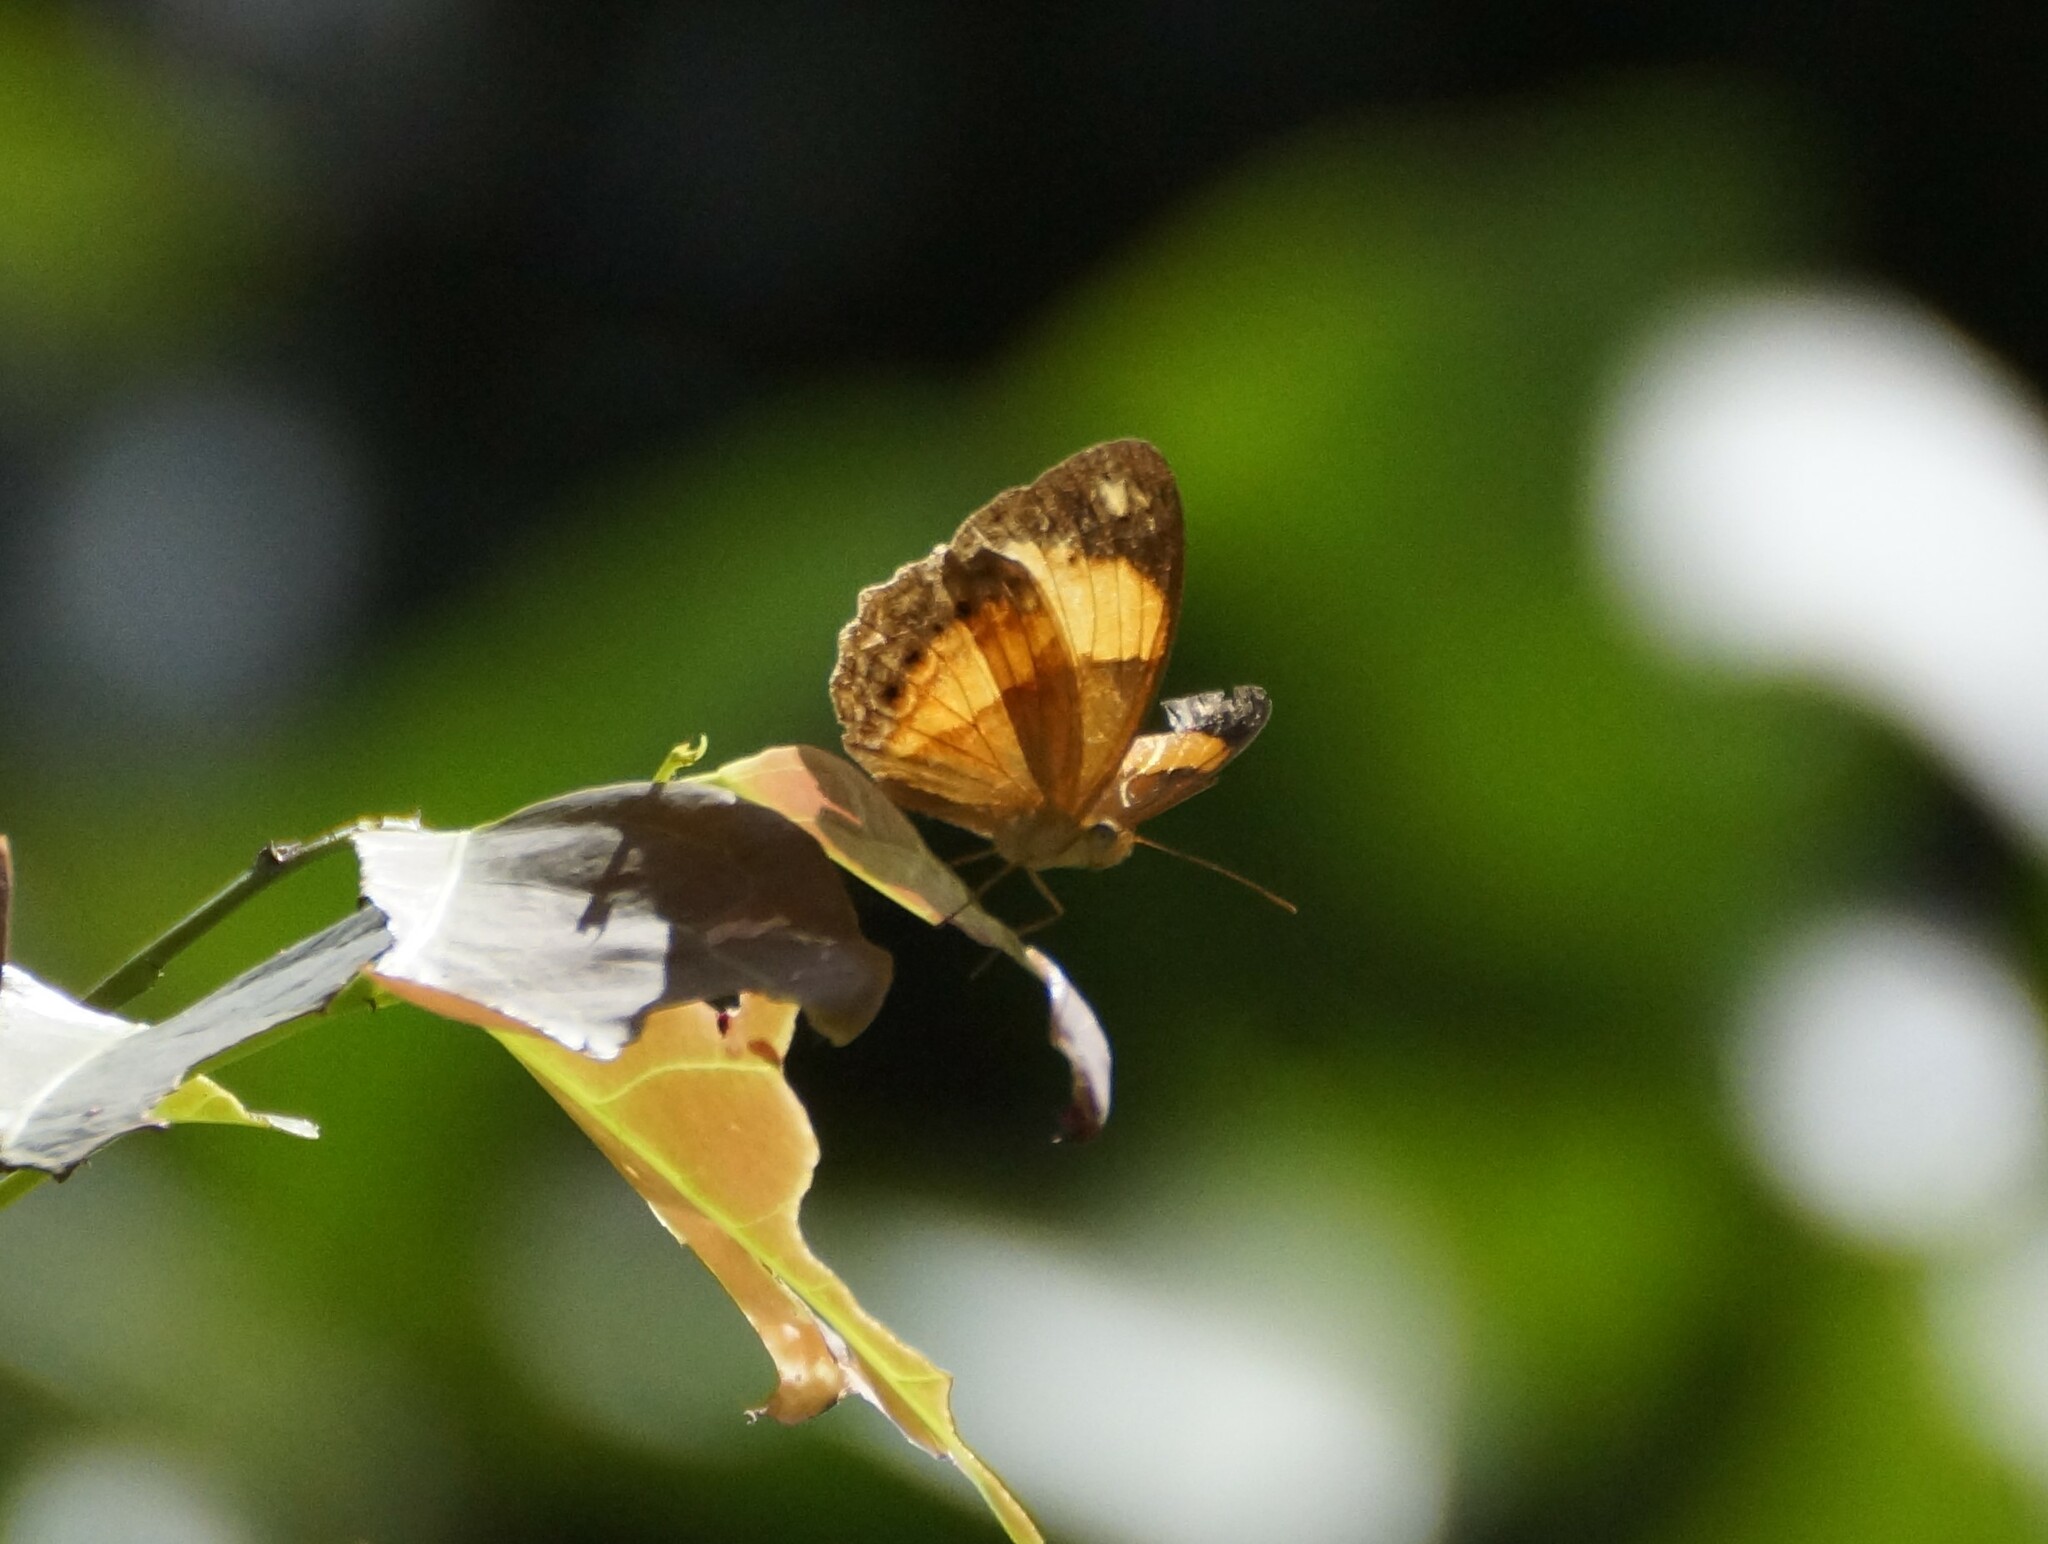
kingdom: Animalia
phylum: Arthropoda
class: Insecta
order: Lepidoptera
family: Nymphalidae
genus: Cupha
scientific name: Cupha prosope
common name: Bordered rustic
